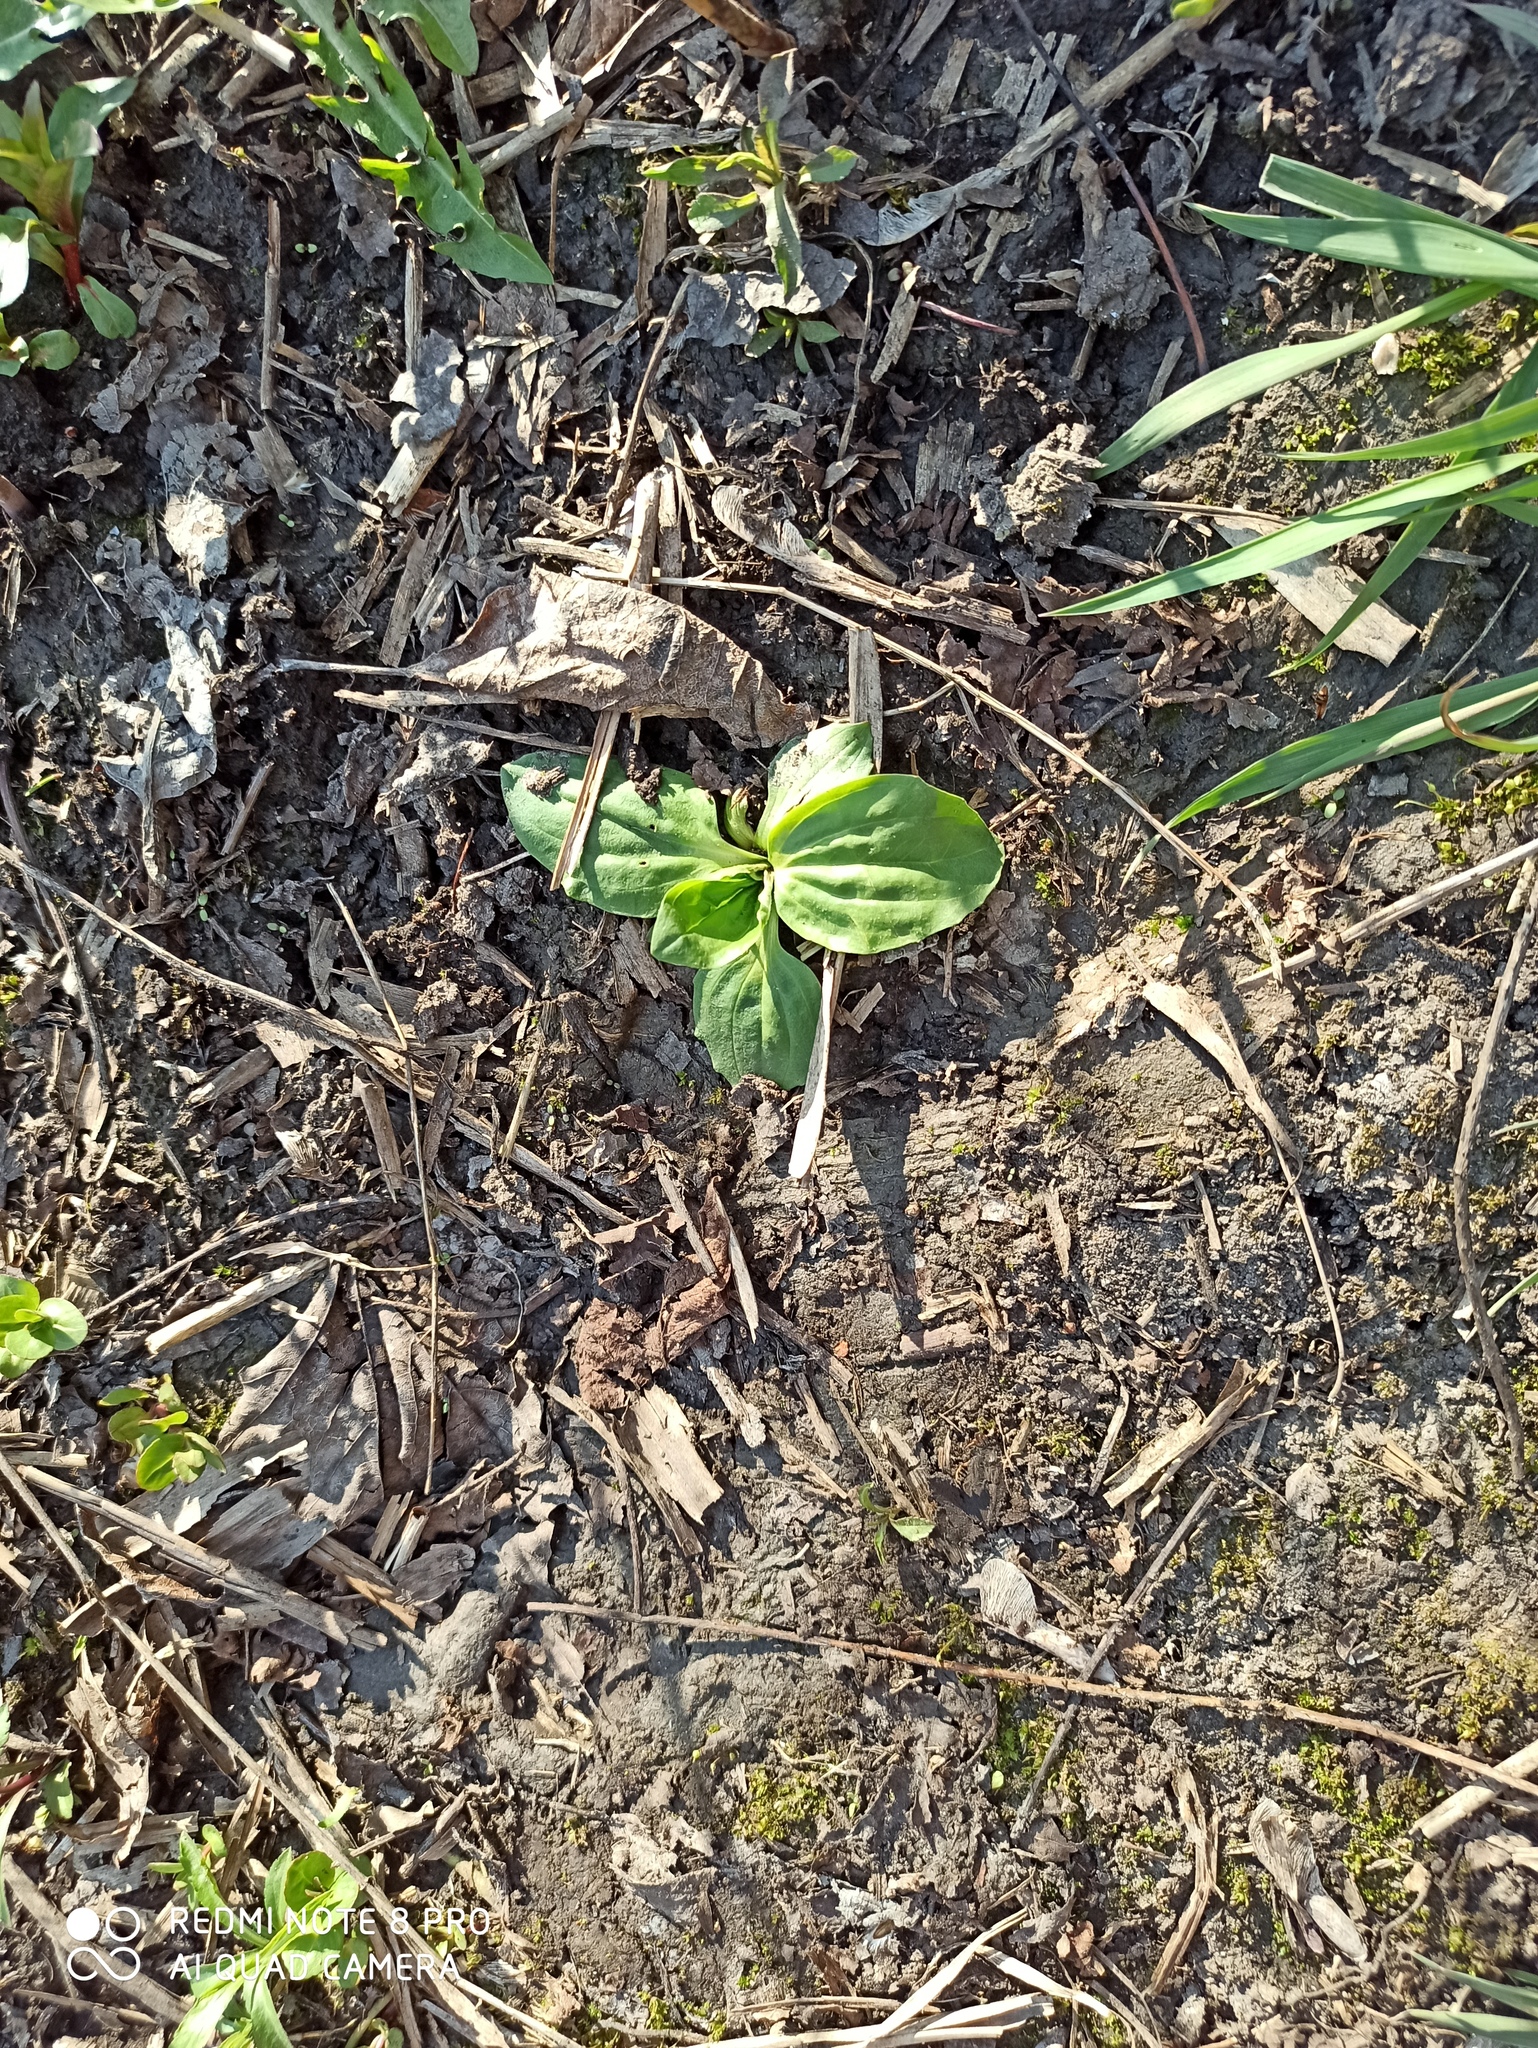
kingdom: Plantae
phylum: Tracheophyta
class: Magnoliopsida
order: Lamiales
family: Plantaginaceae
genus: Plantago
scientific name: Plantago major
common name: Common plantain
